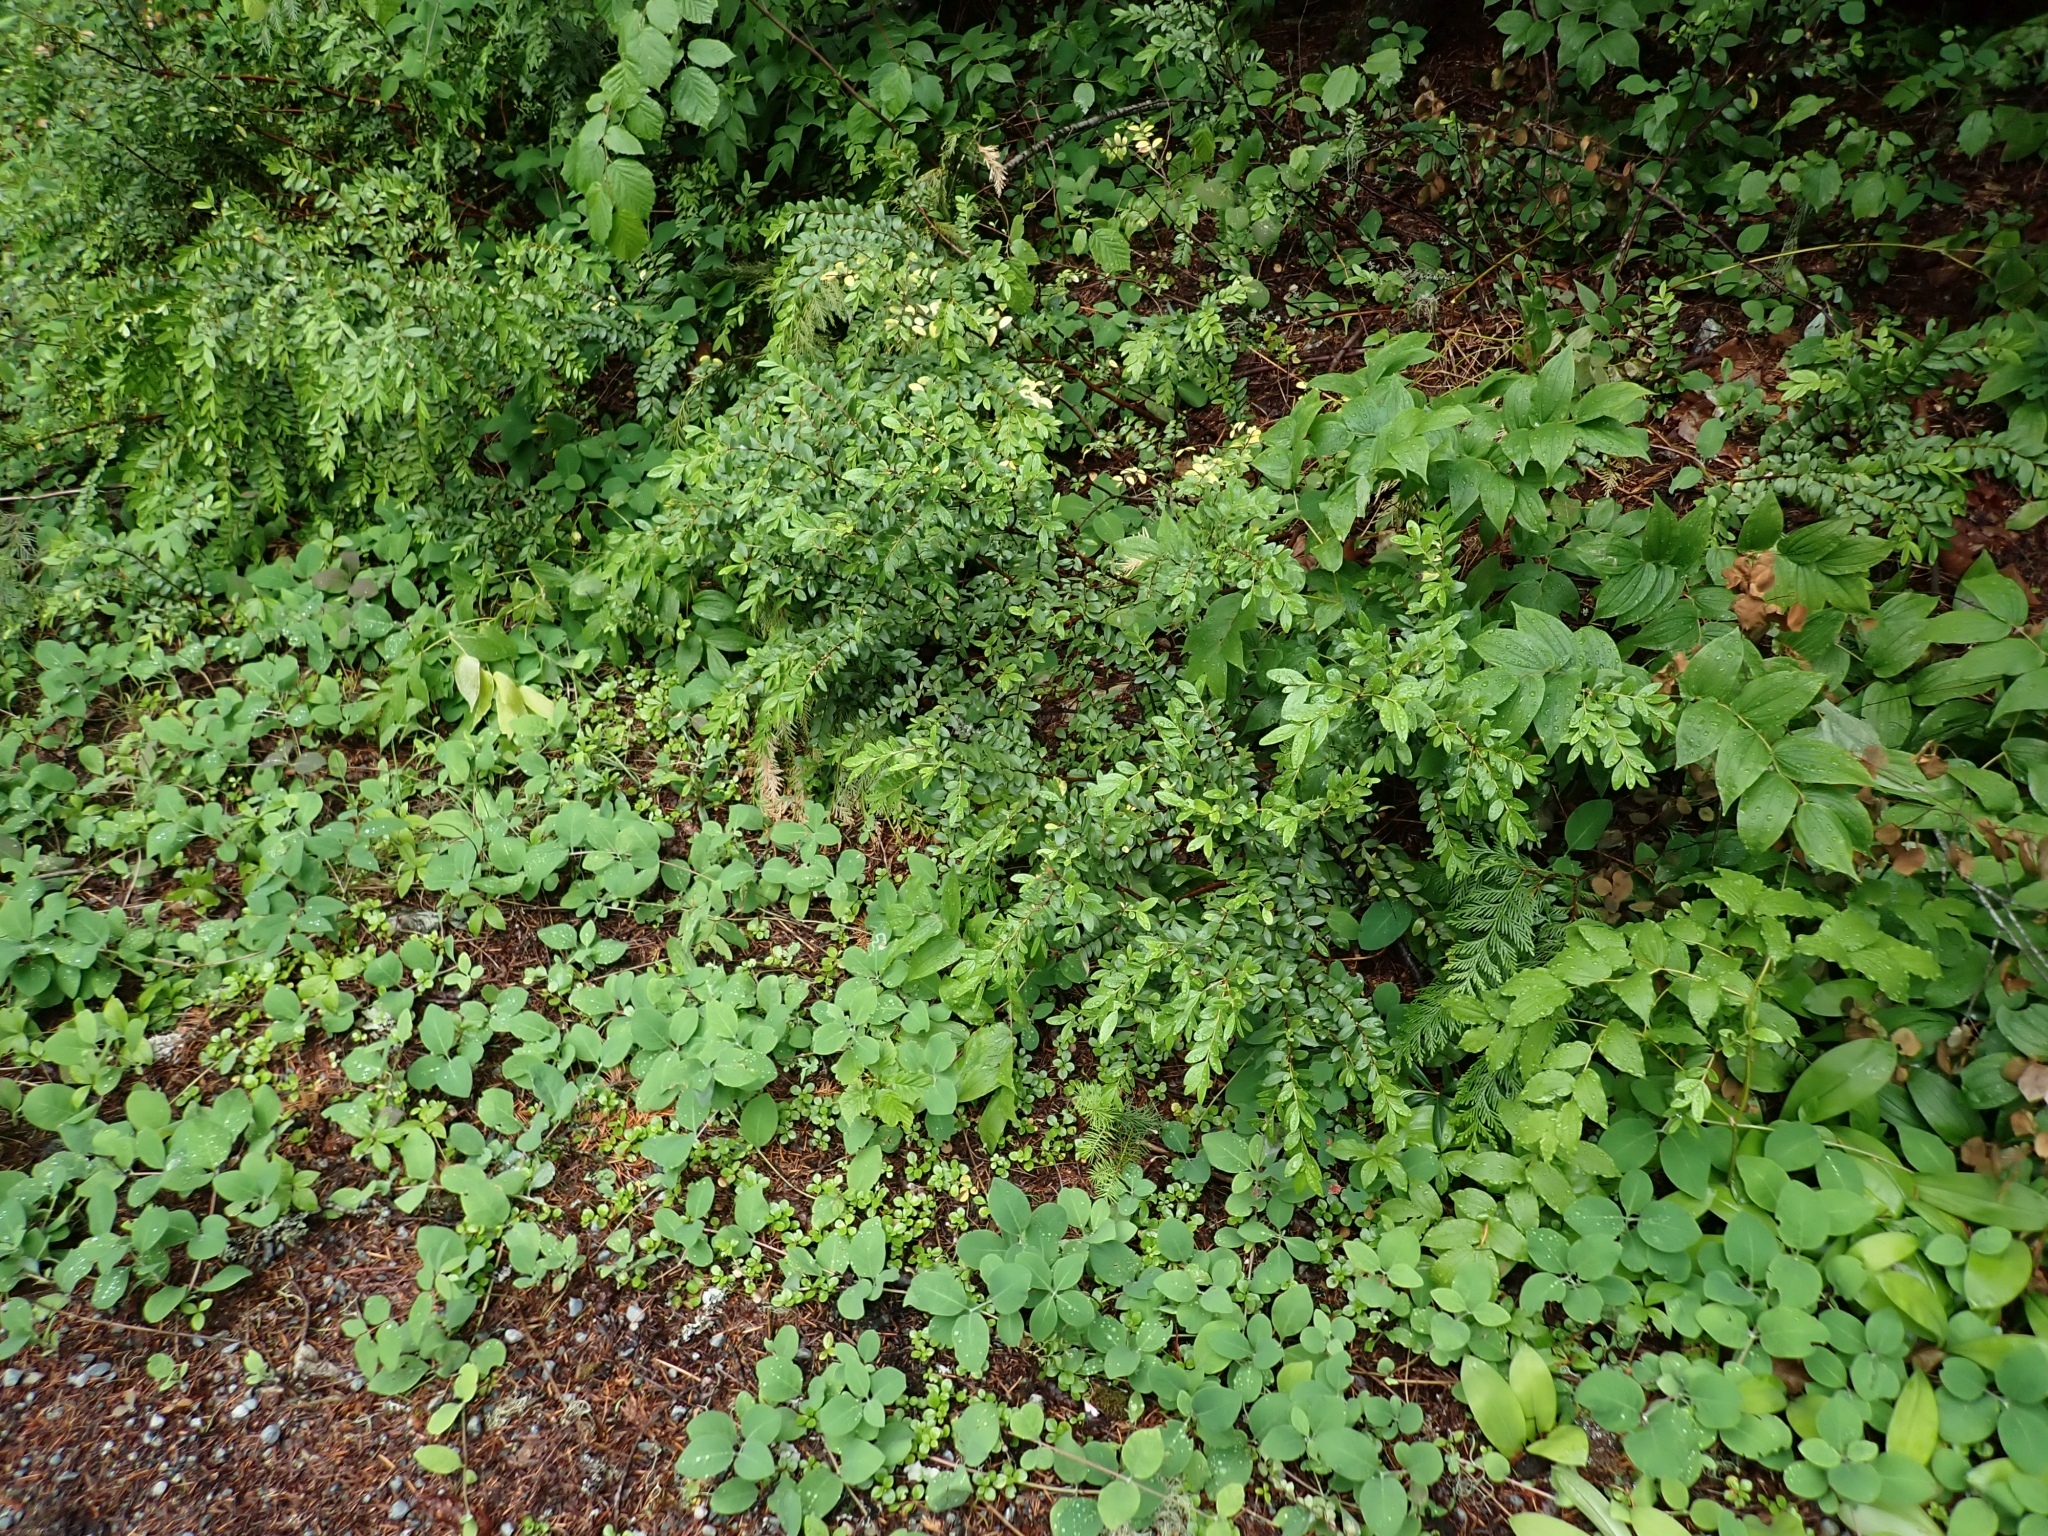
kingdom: Plantae
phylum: Tracheophyta
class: Magnoliopsida
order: Celastrales
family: Celastraceae
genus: Paxistima
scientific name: Paxistima myrsinites
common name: Mountain-lover
